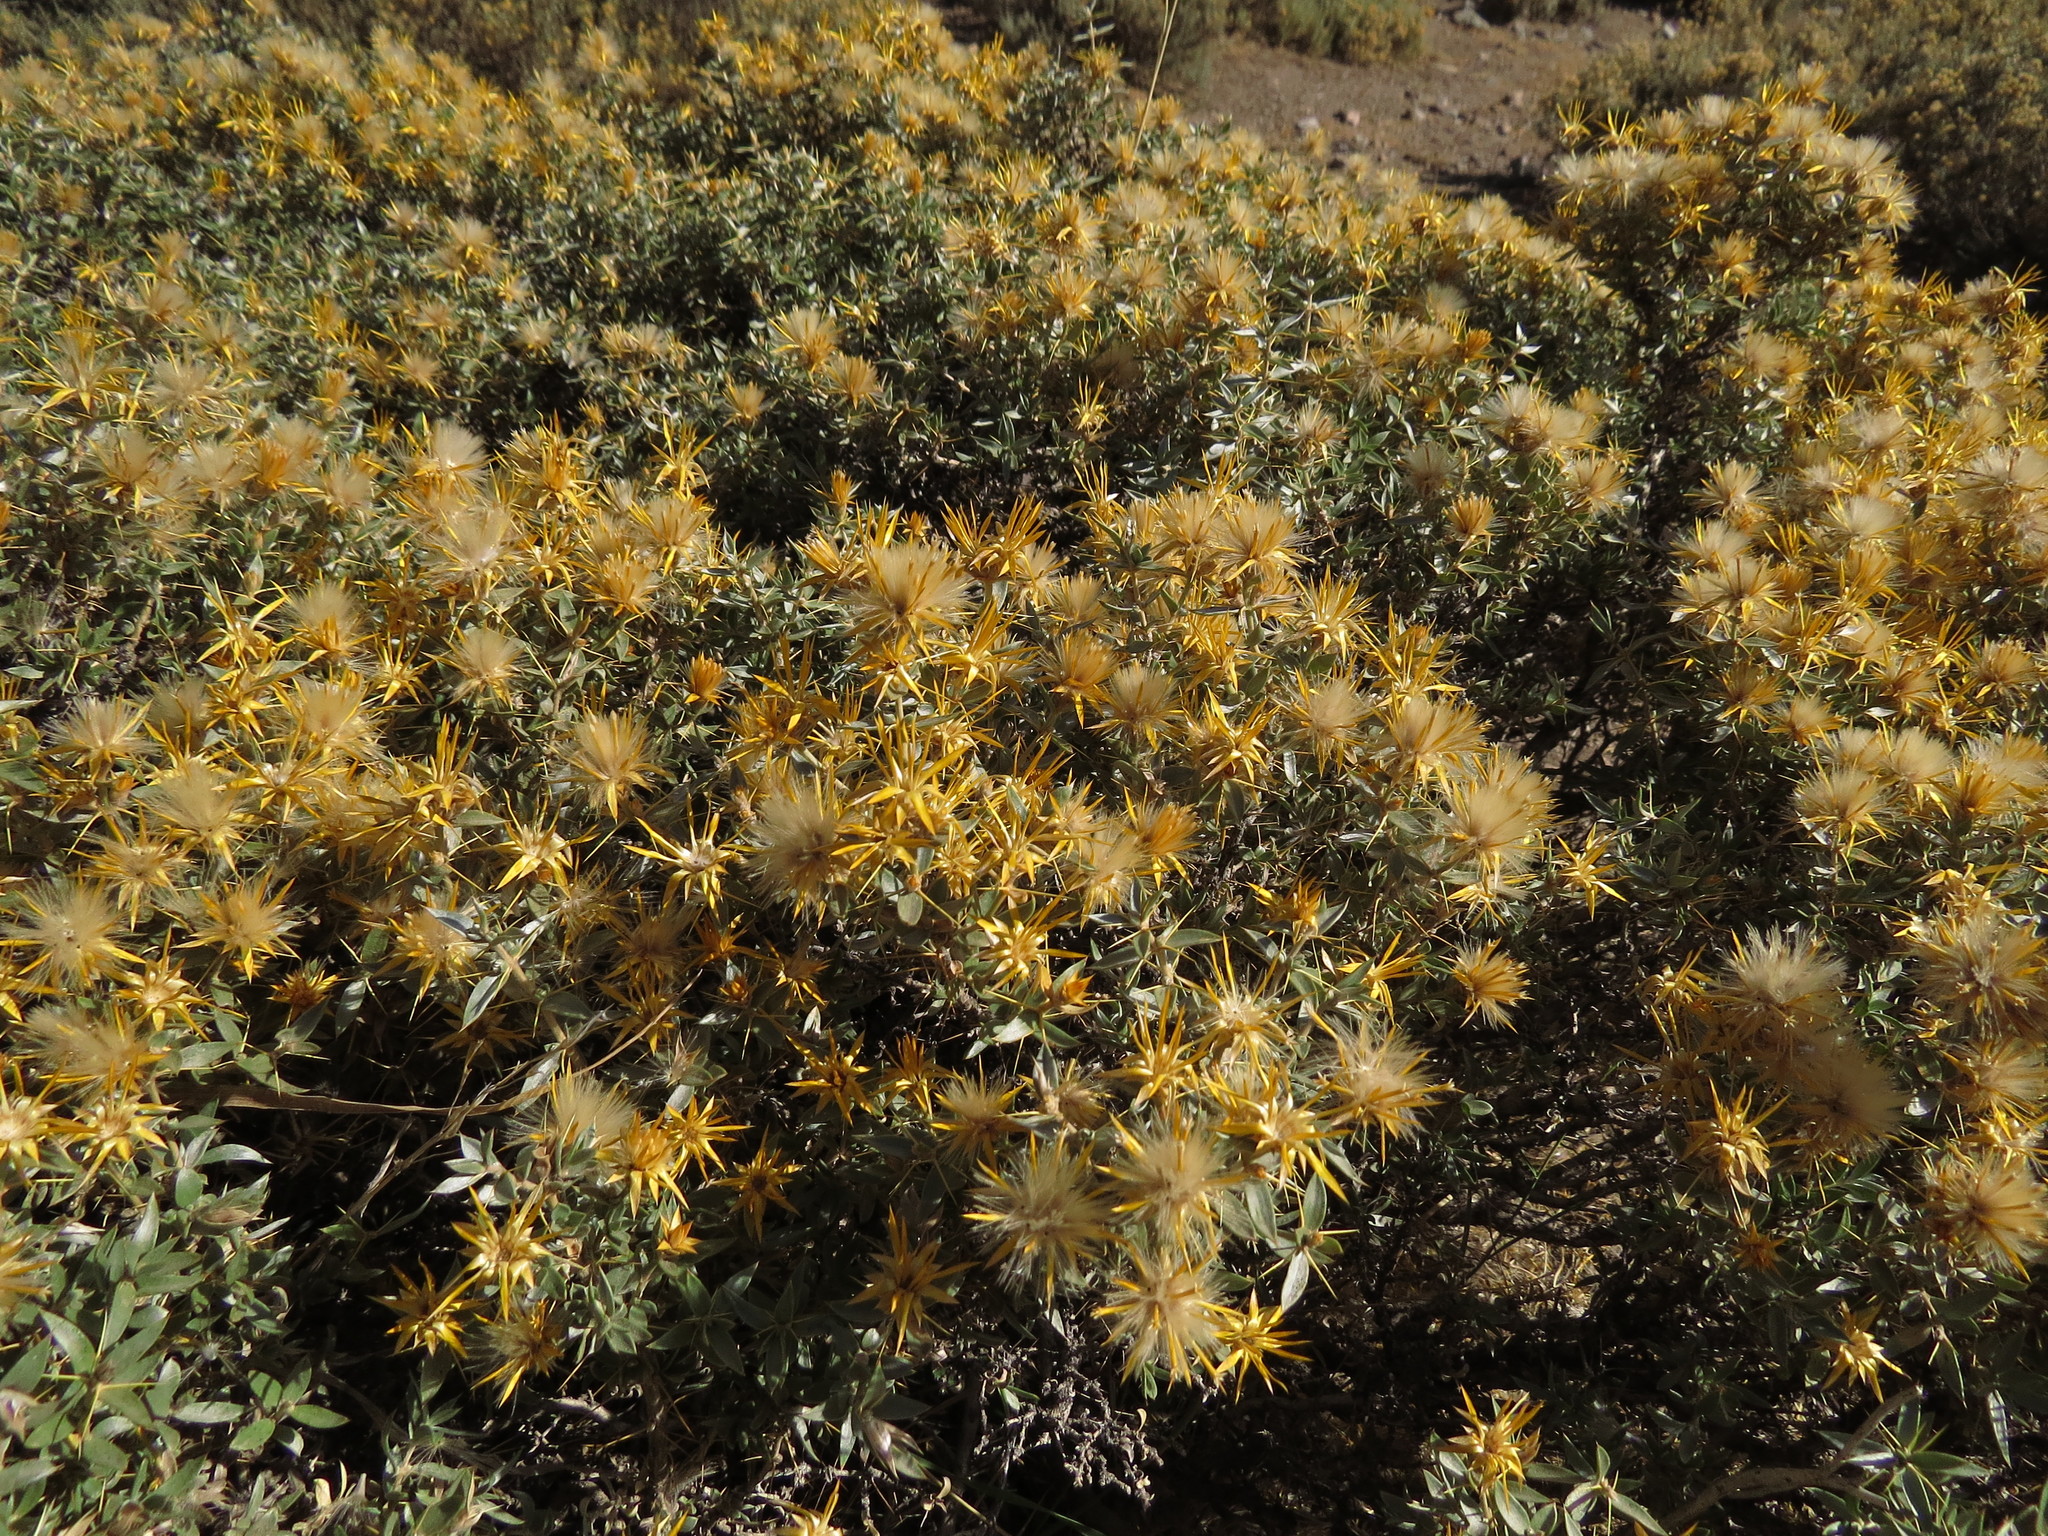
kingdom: Plantae
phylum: Tracheophyta
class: Magnoliopsida
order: Asterales
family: Asteraceae
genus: Chuquiraga
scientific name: Chuquiraga oppositifolia
